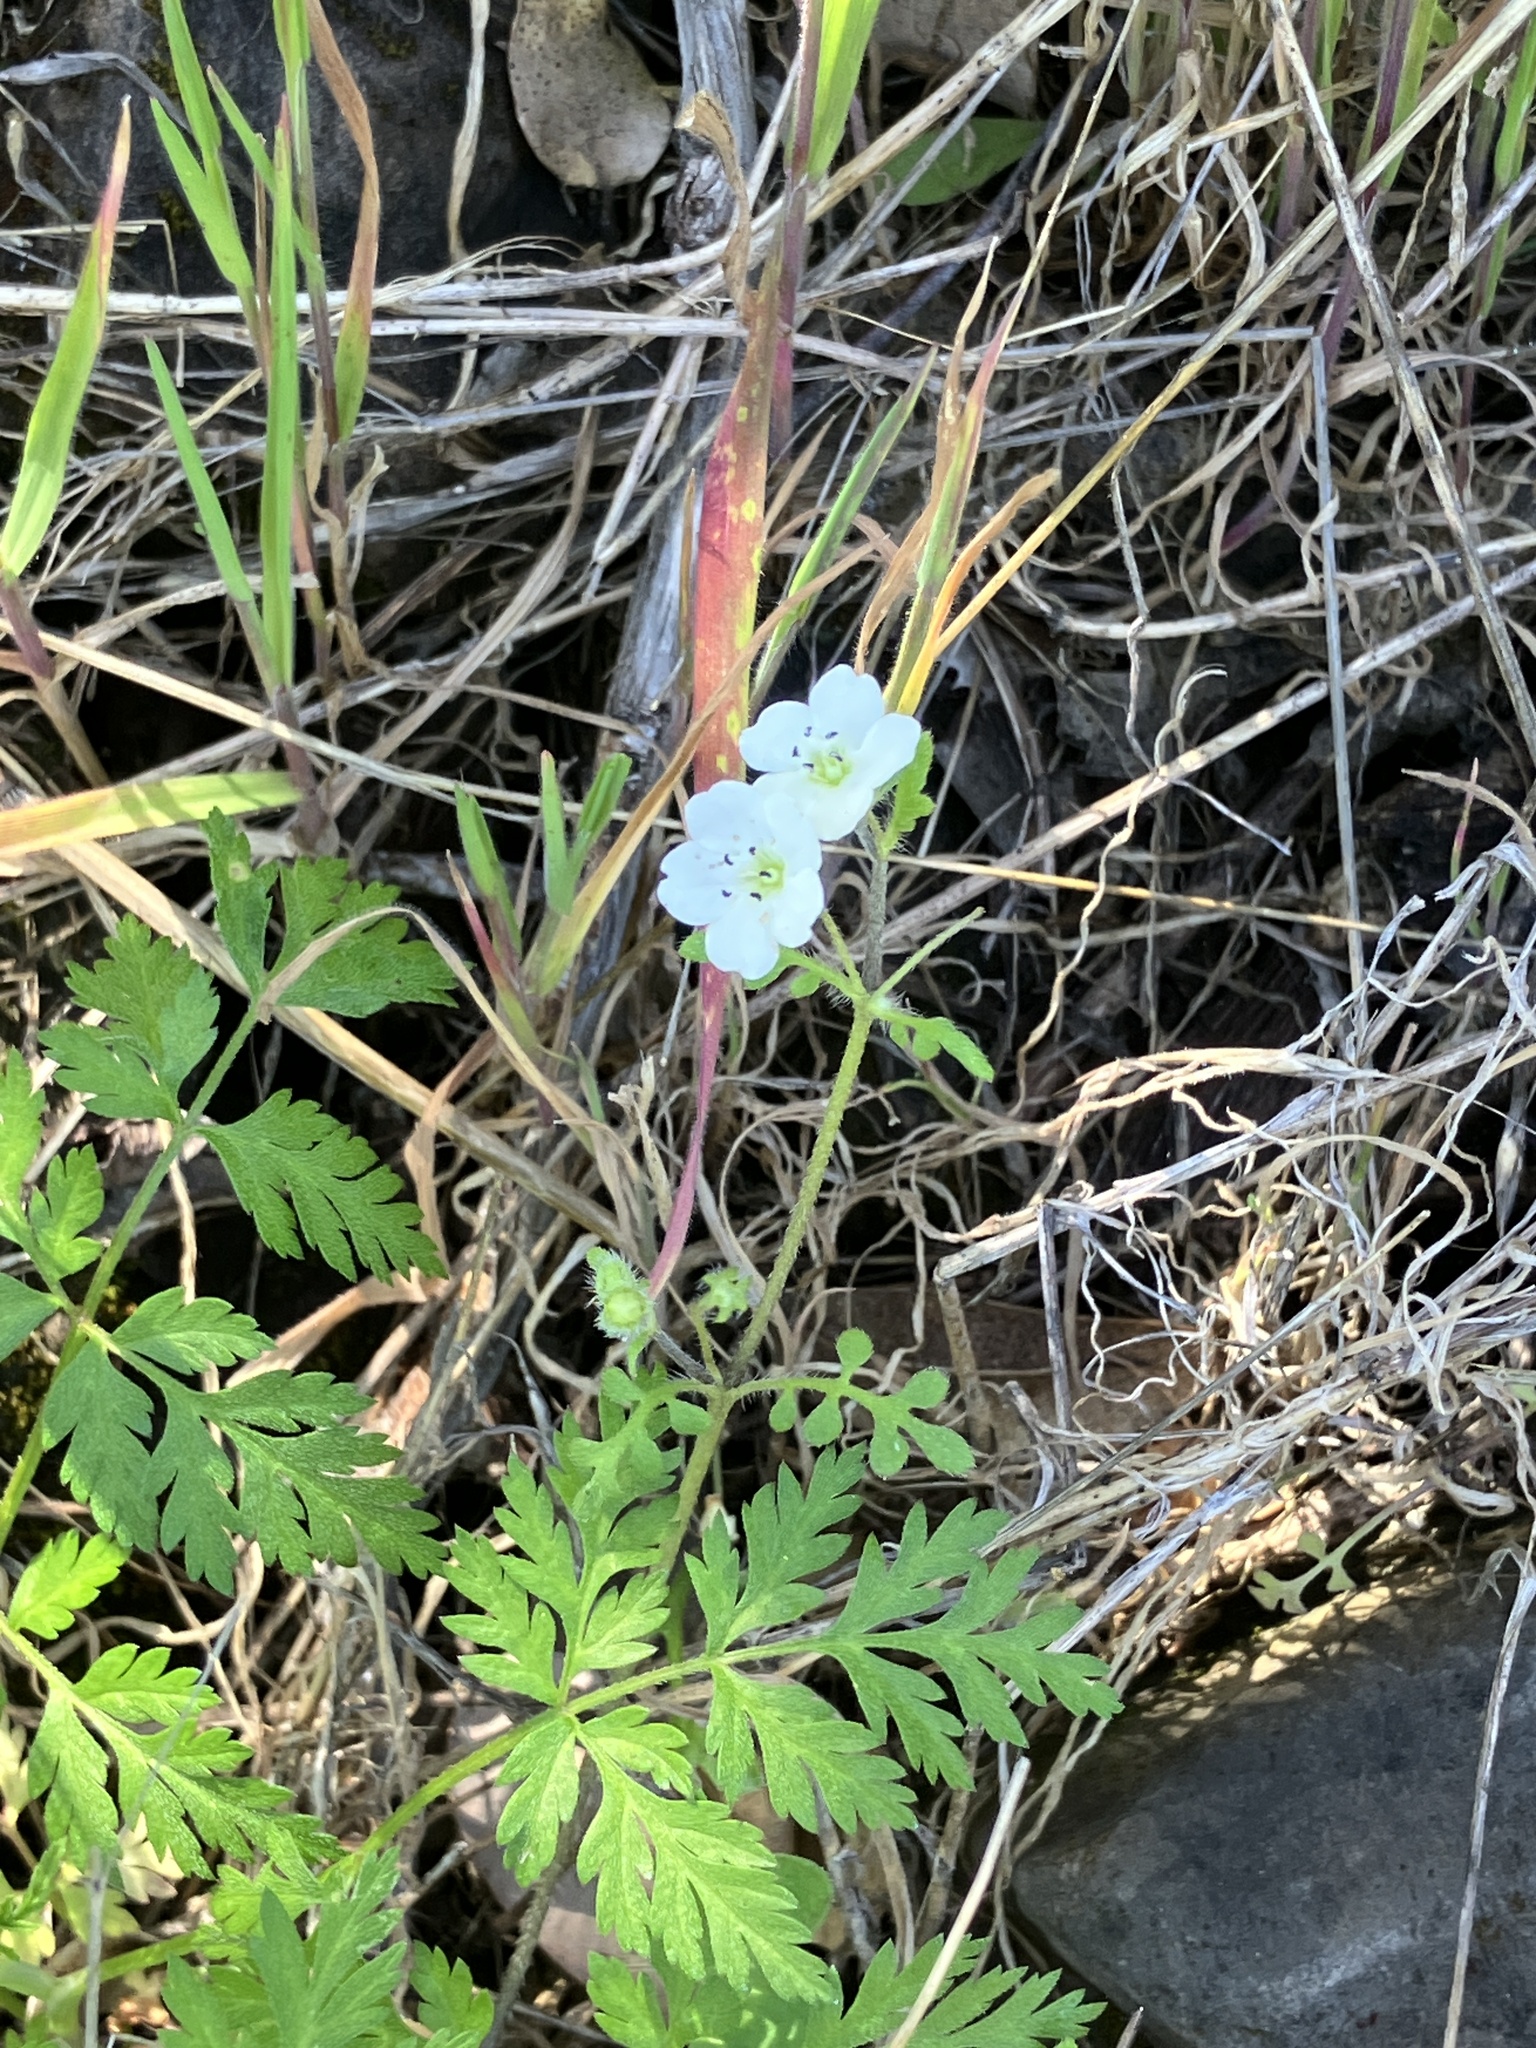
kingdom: Plantae
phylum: Tracheophyta
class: Magnoliopsida
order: Boraginales
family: Hydrophyllaceae
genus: Nemophila
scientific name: Nemophila heterophylla
